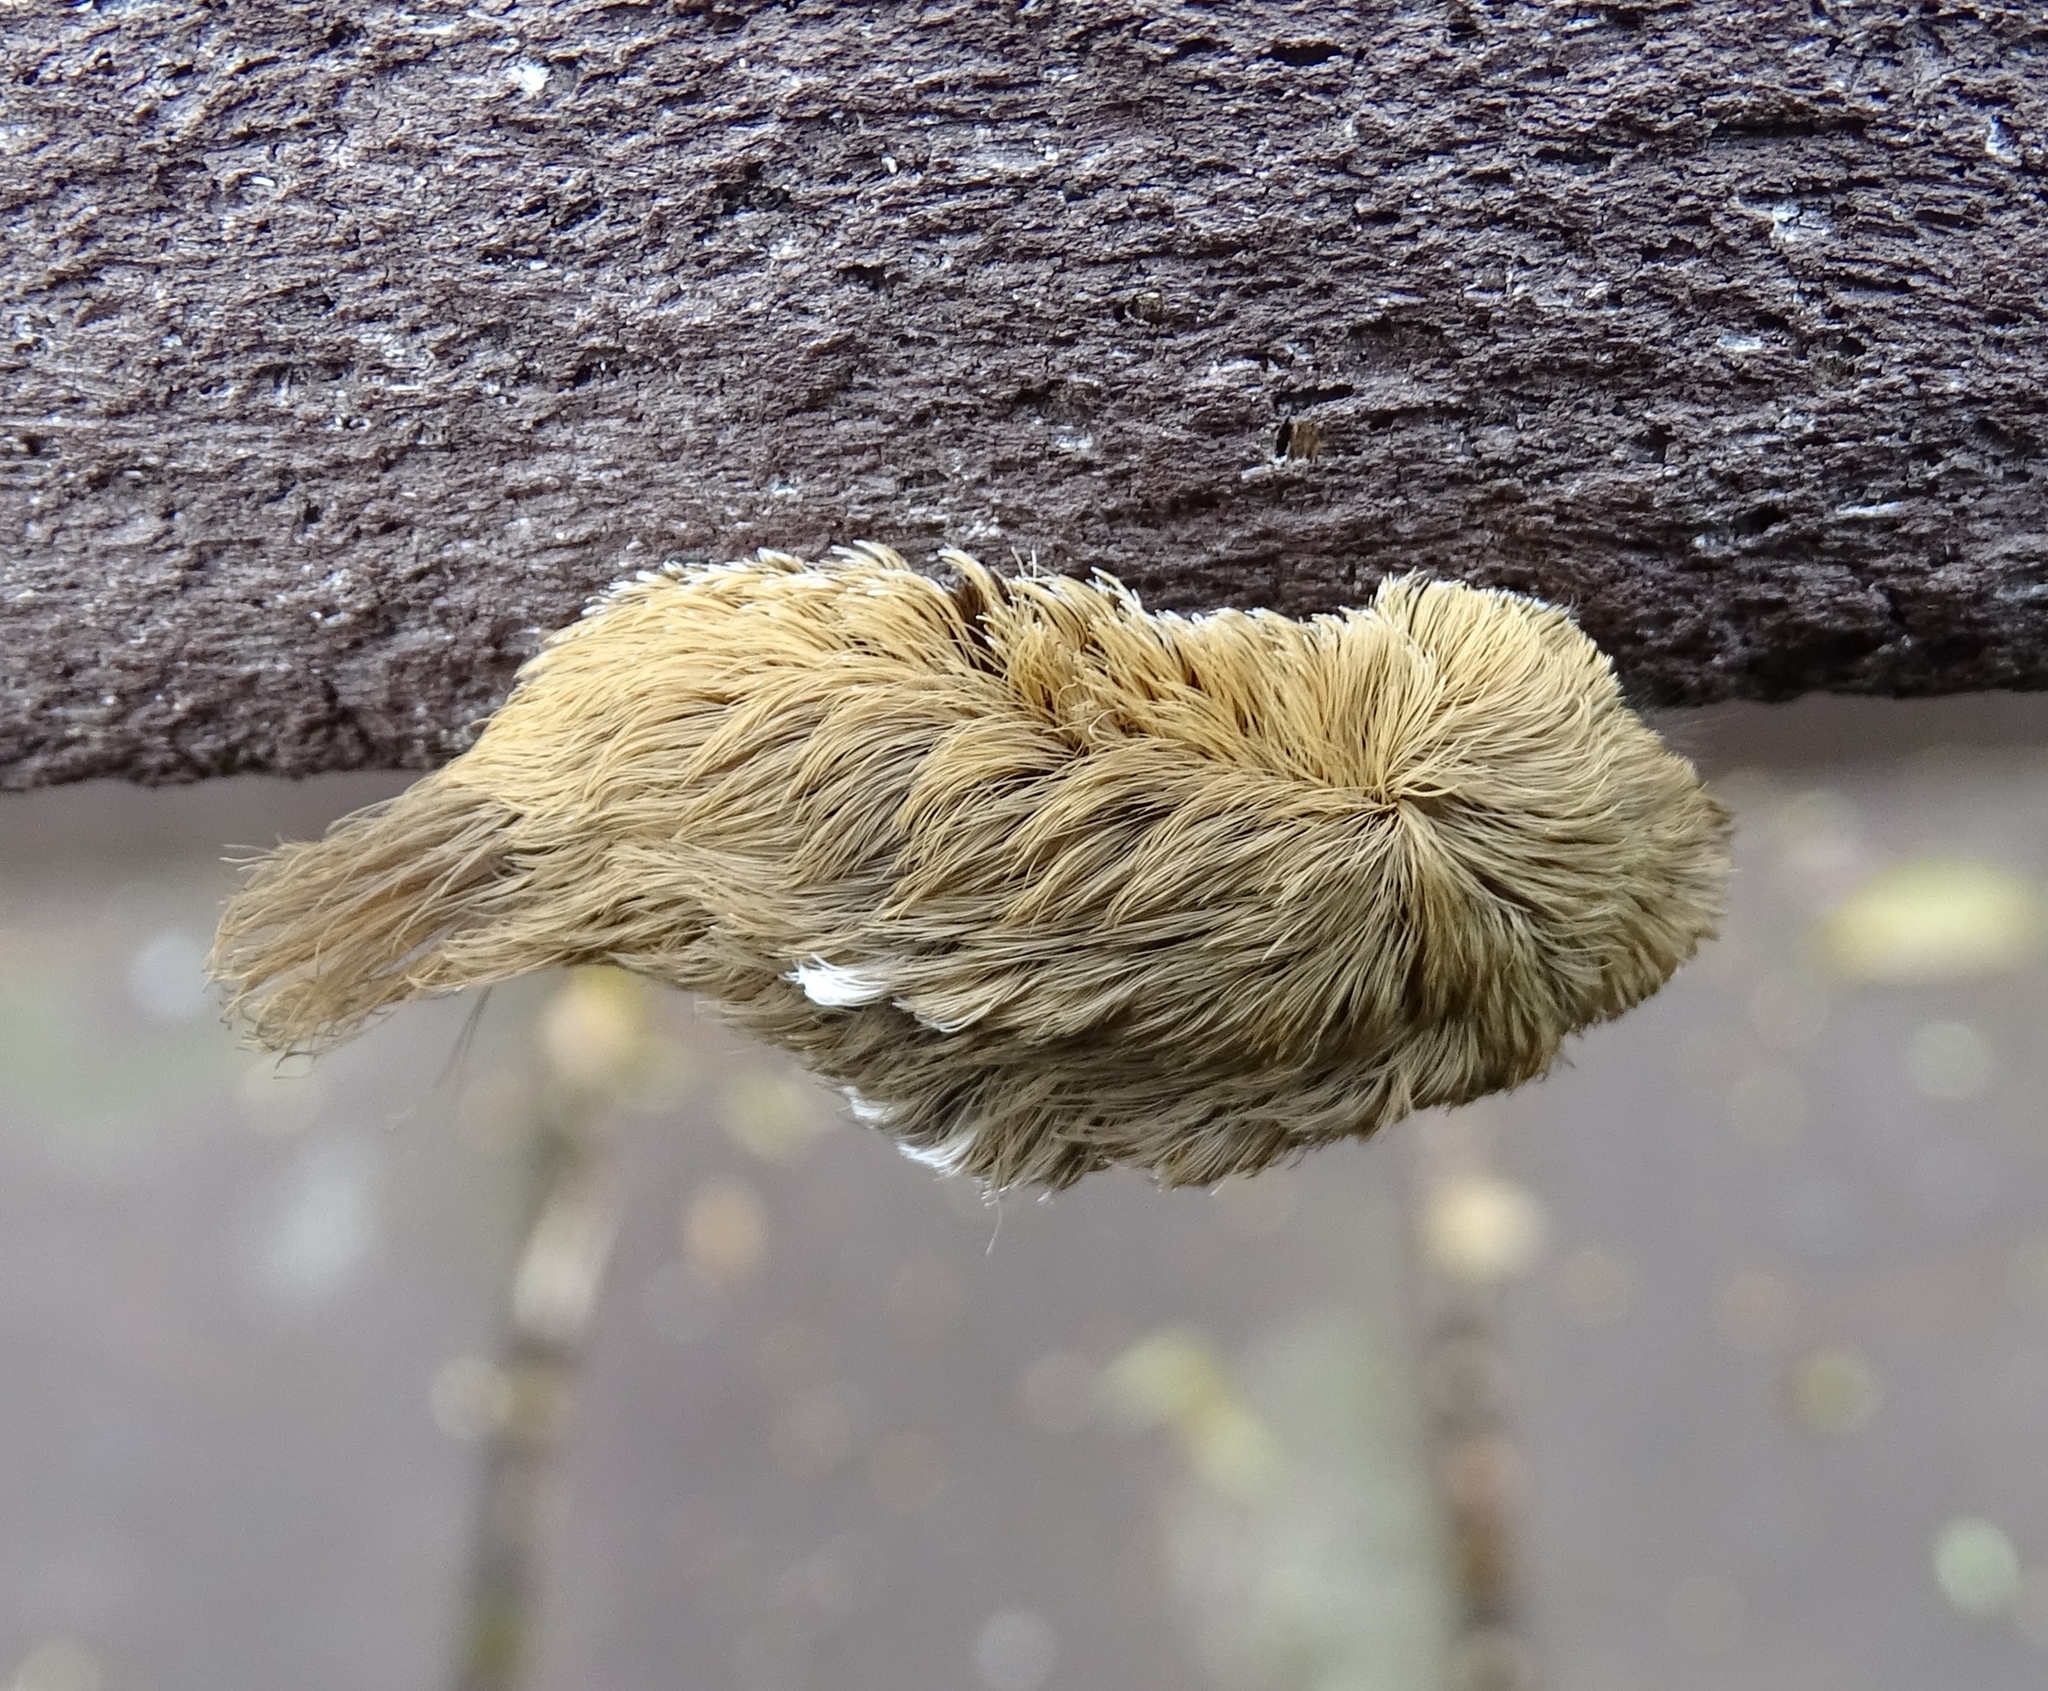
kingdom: Animalia
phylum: Arthropoda
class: Insecta
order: Lepidoptera
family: Megalopygidae
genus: Megalopyge
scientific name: Megalopyge opercularis
